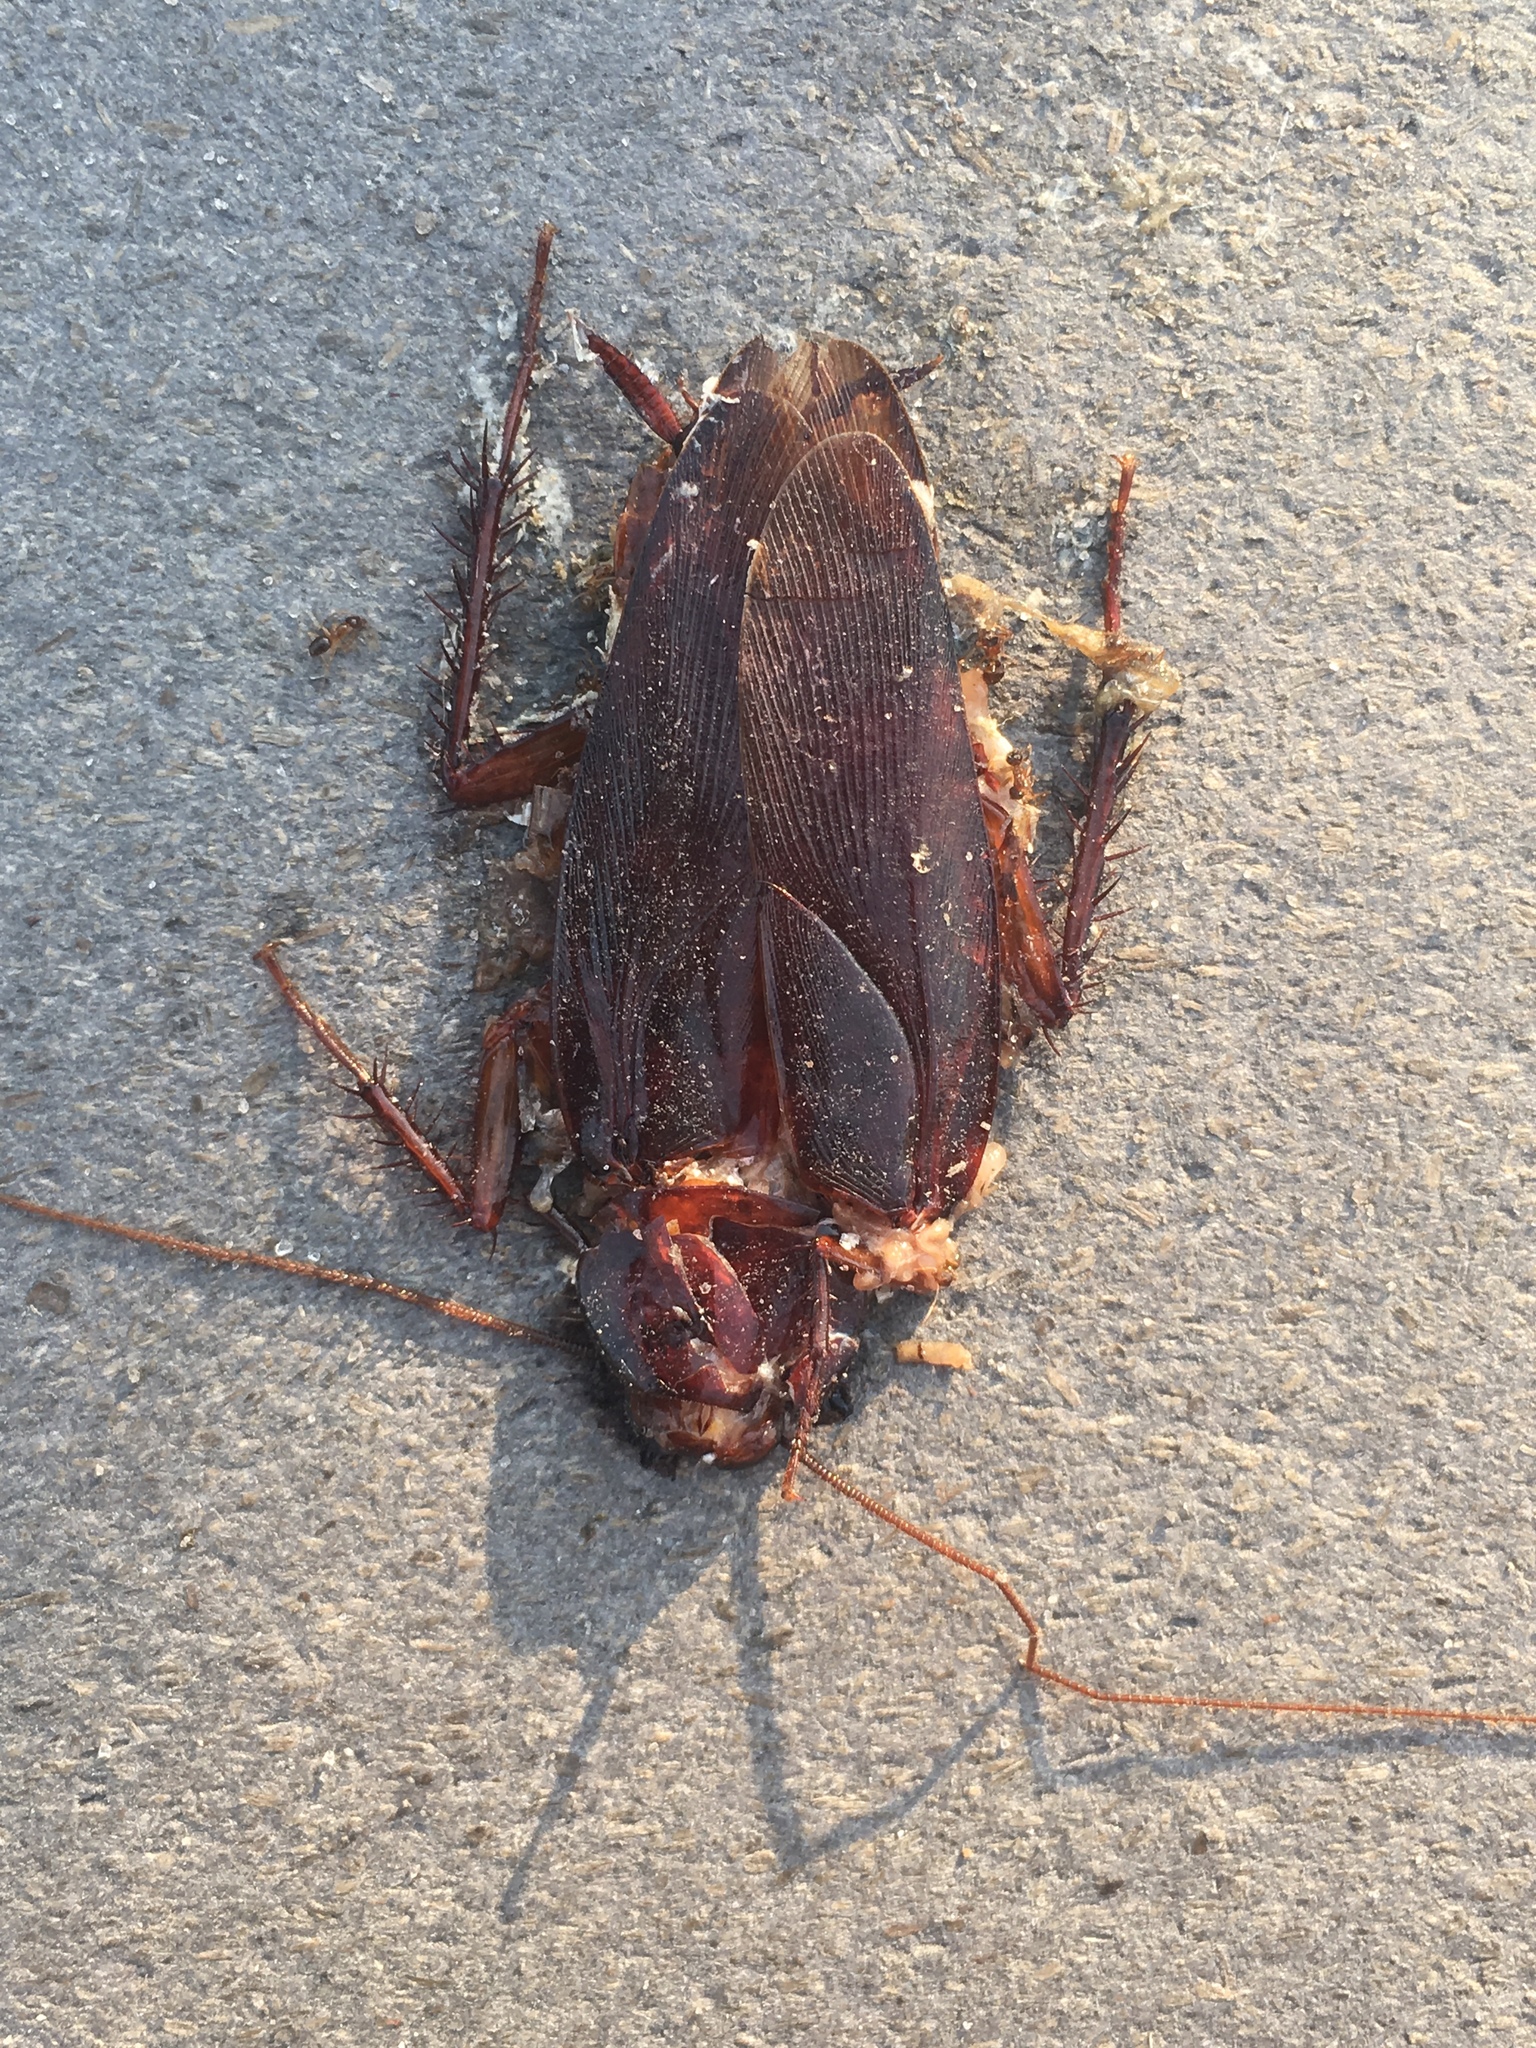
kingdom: Animalia
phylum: Arthropoda
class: Insecta
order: Blattodea
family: Blattidae
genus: Periplaneta
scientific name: Periplaneta americana
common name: American cockroach
